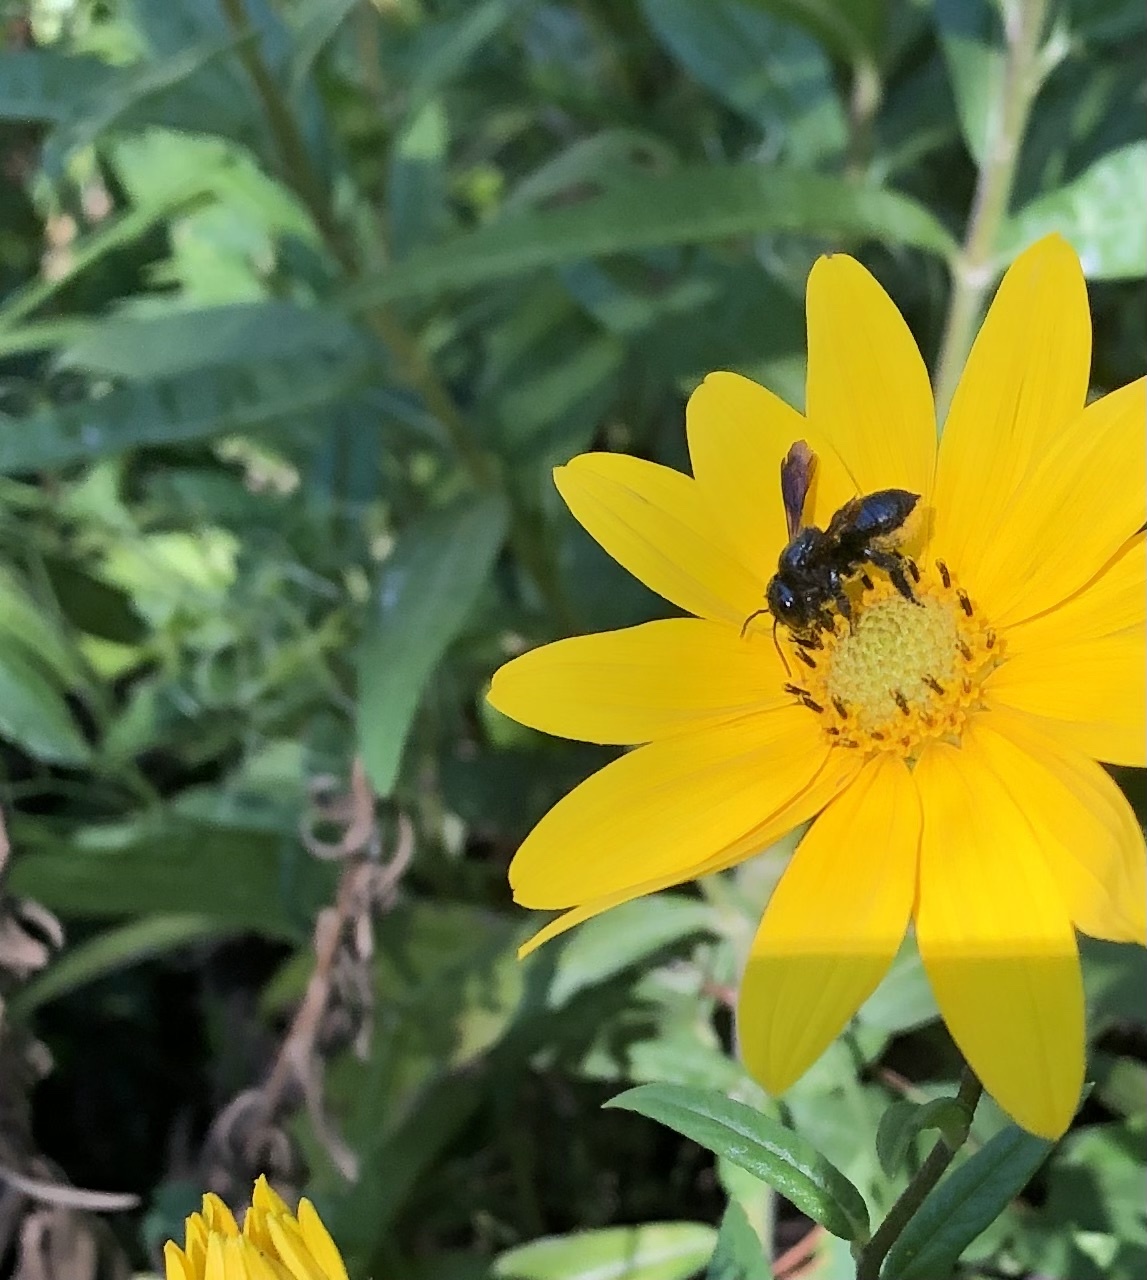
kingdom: Animalia
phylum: Arthropoda
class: Insecta
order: Hymenoptera
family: Megachilidae
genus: Megachile
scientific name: Megachile xylocopoides
